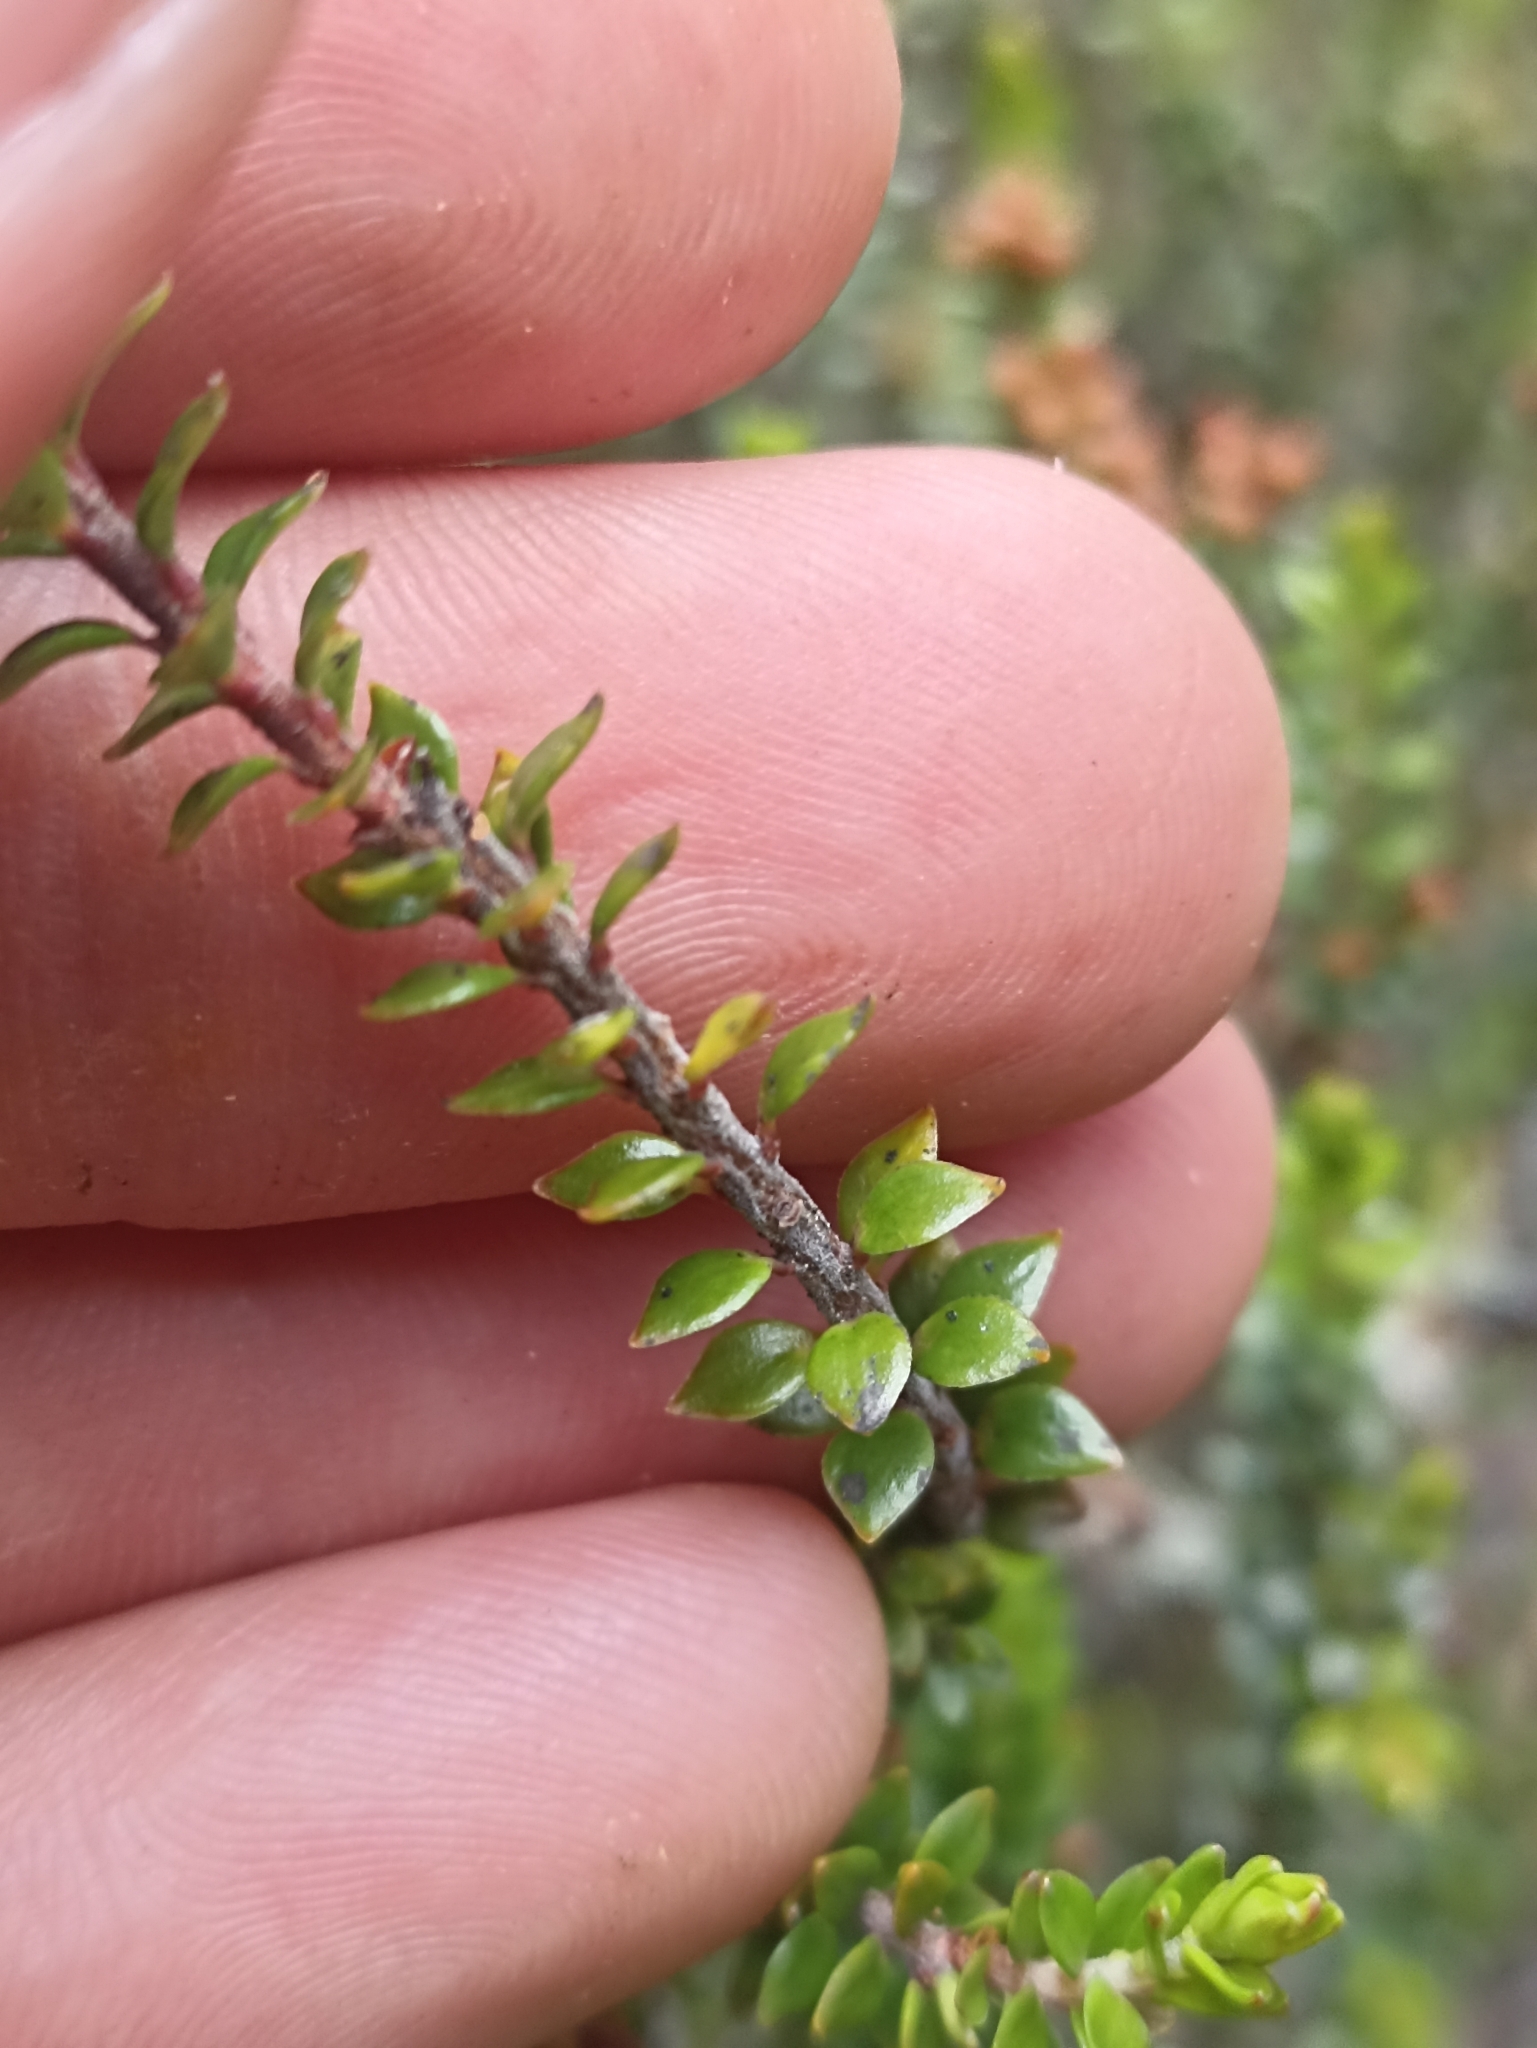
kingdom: Plantae
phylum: Tracheophyta
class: Magnoliopsida
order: Ericales
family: Ericaceae
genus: Epacris
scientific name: Epacris alpina
